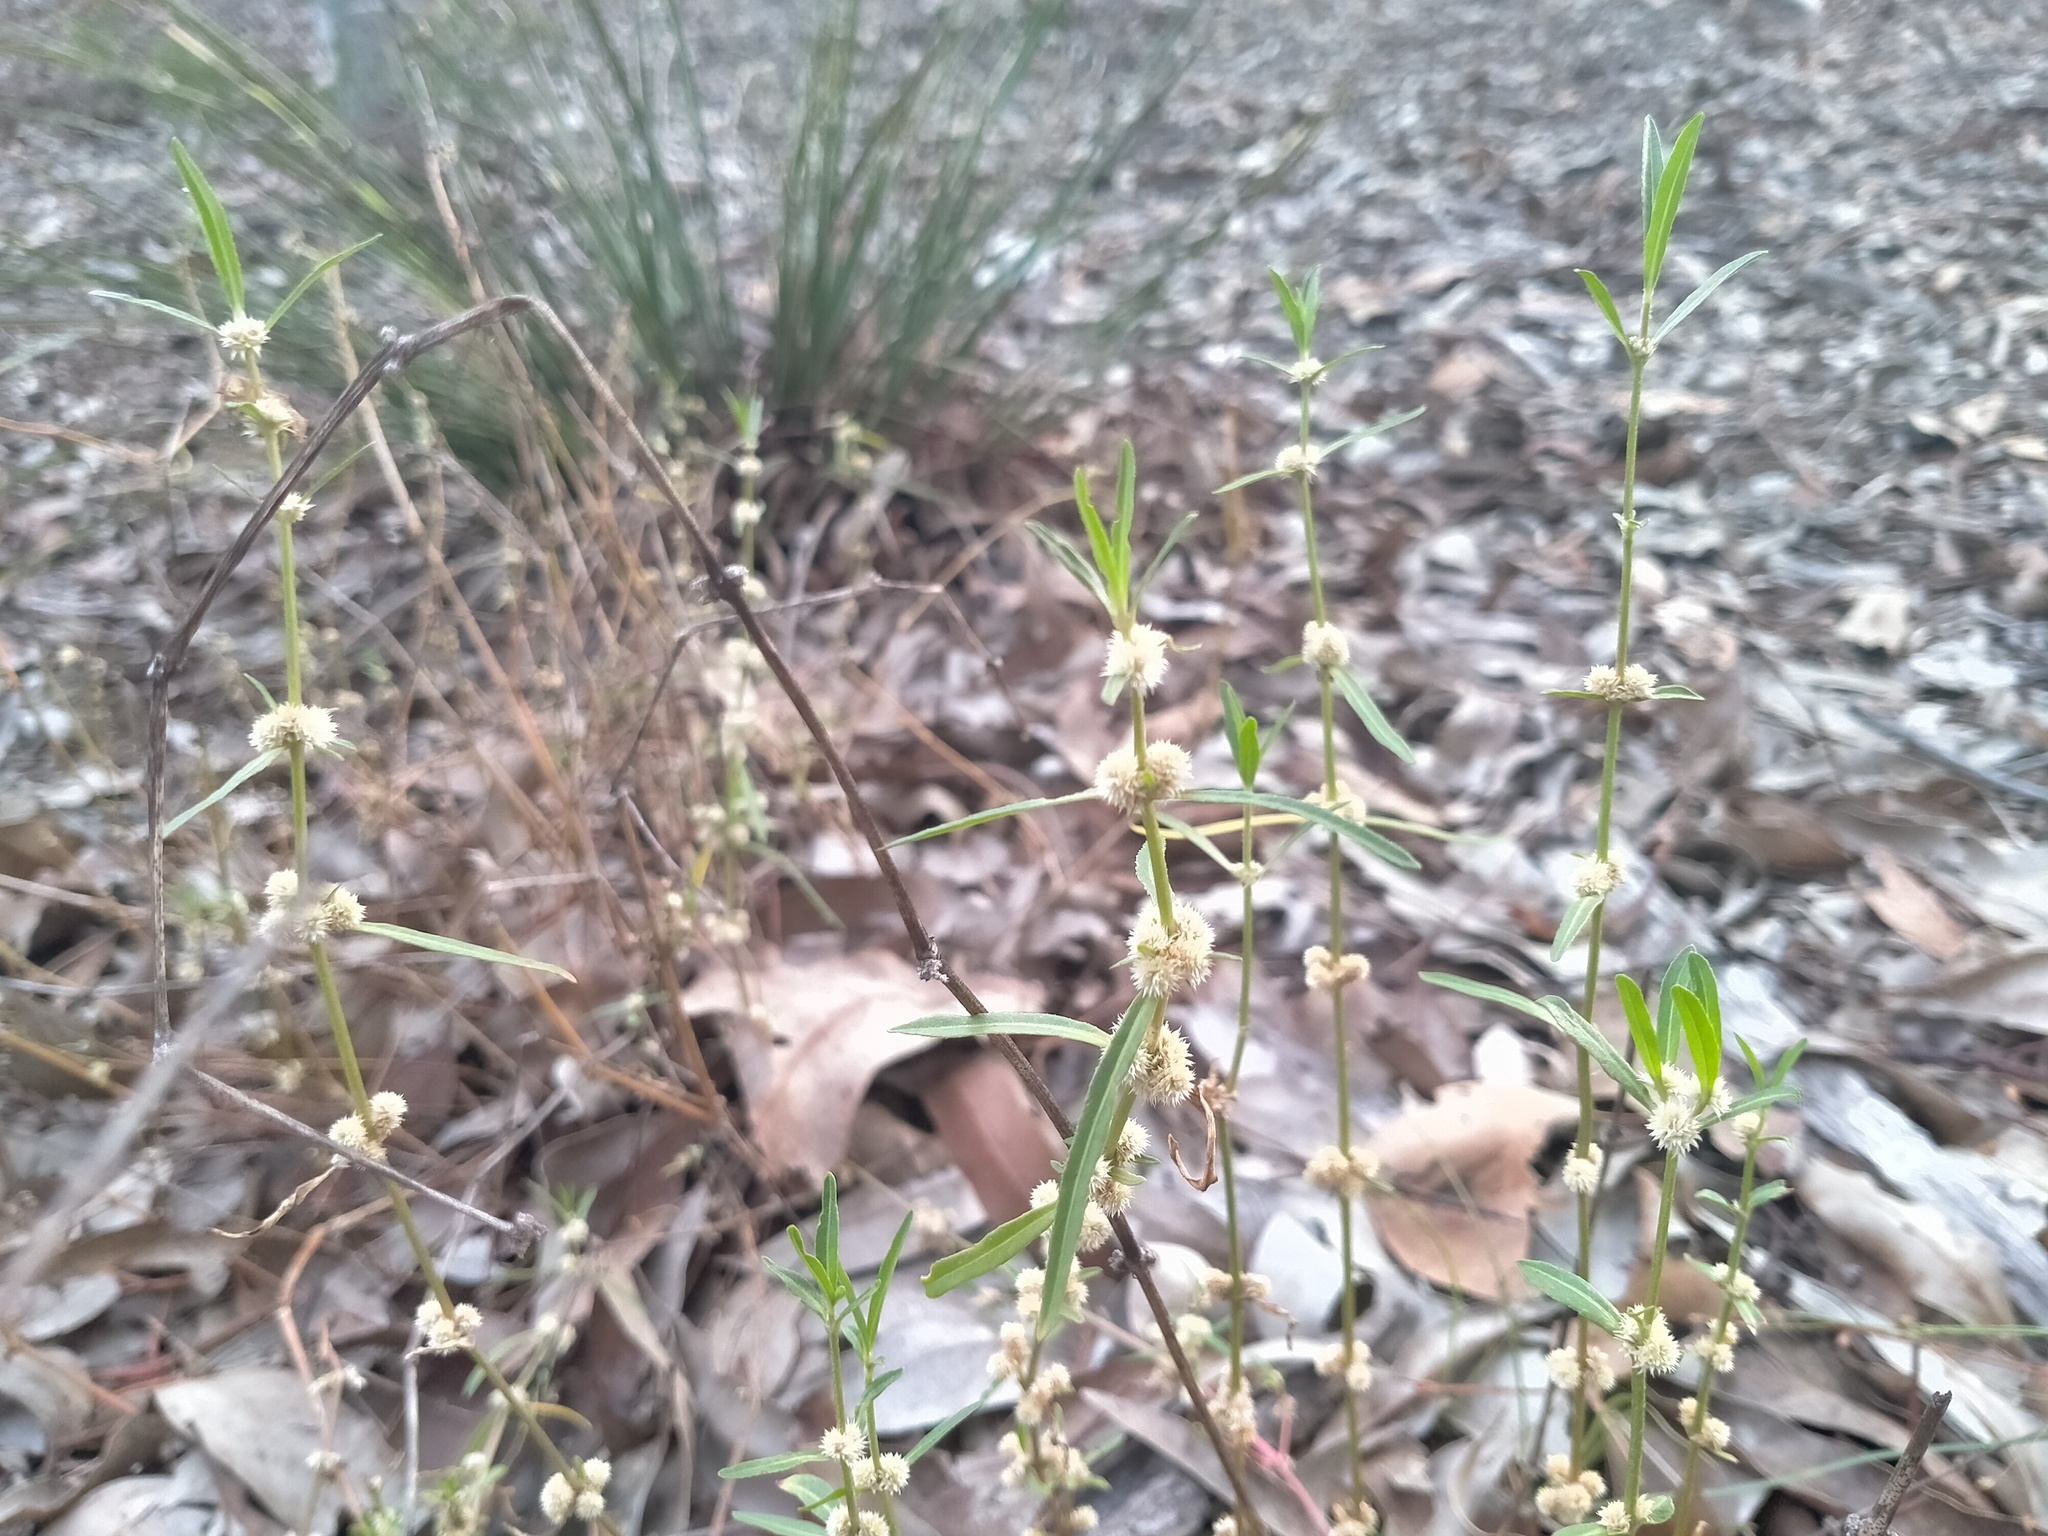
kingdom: Plantae
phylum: Tracheophyta
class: Magnoliopsida
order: Caryophyllales
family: Amaranthaceae
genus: Alternanthera
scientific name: Alternanthera denticulata
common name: Lesser joyweed
